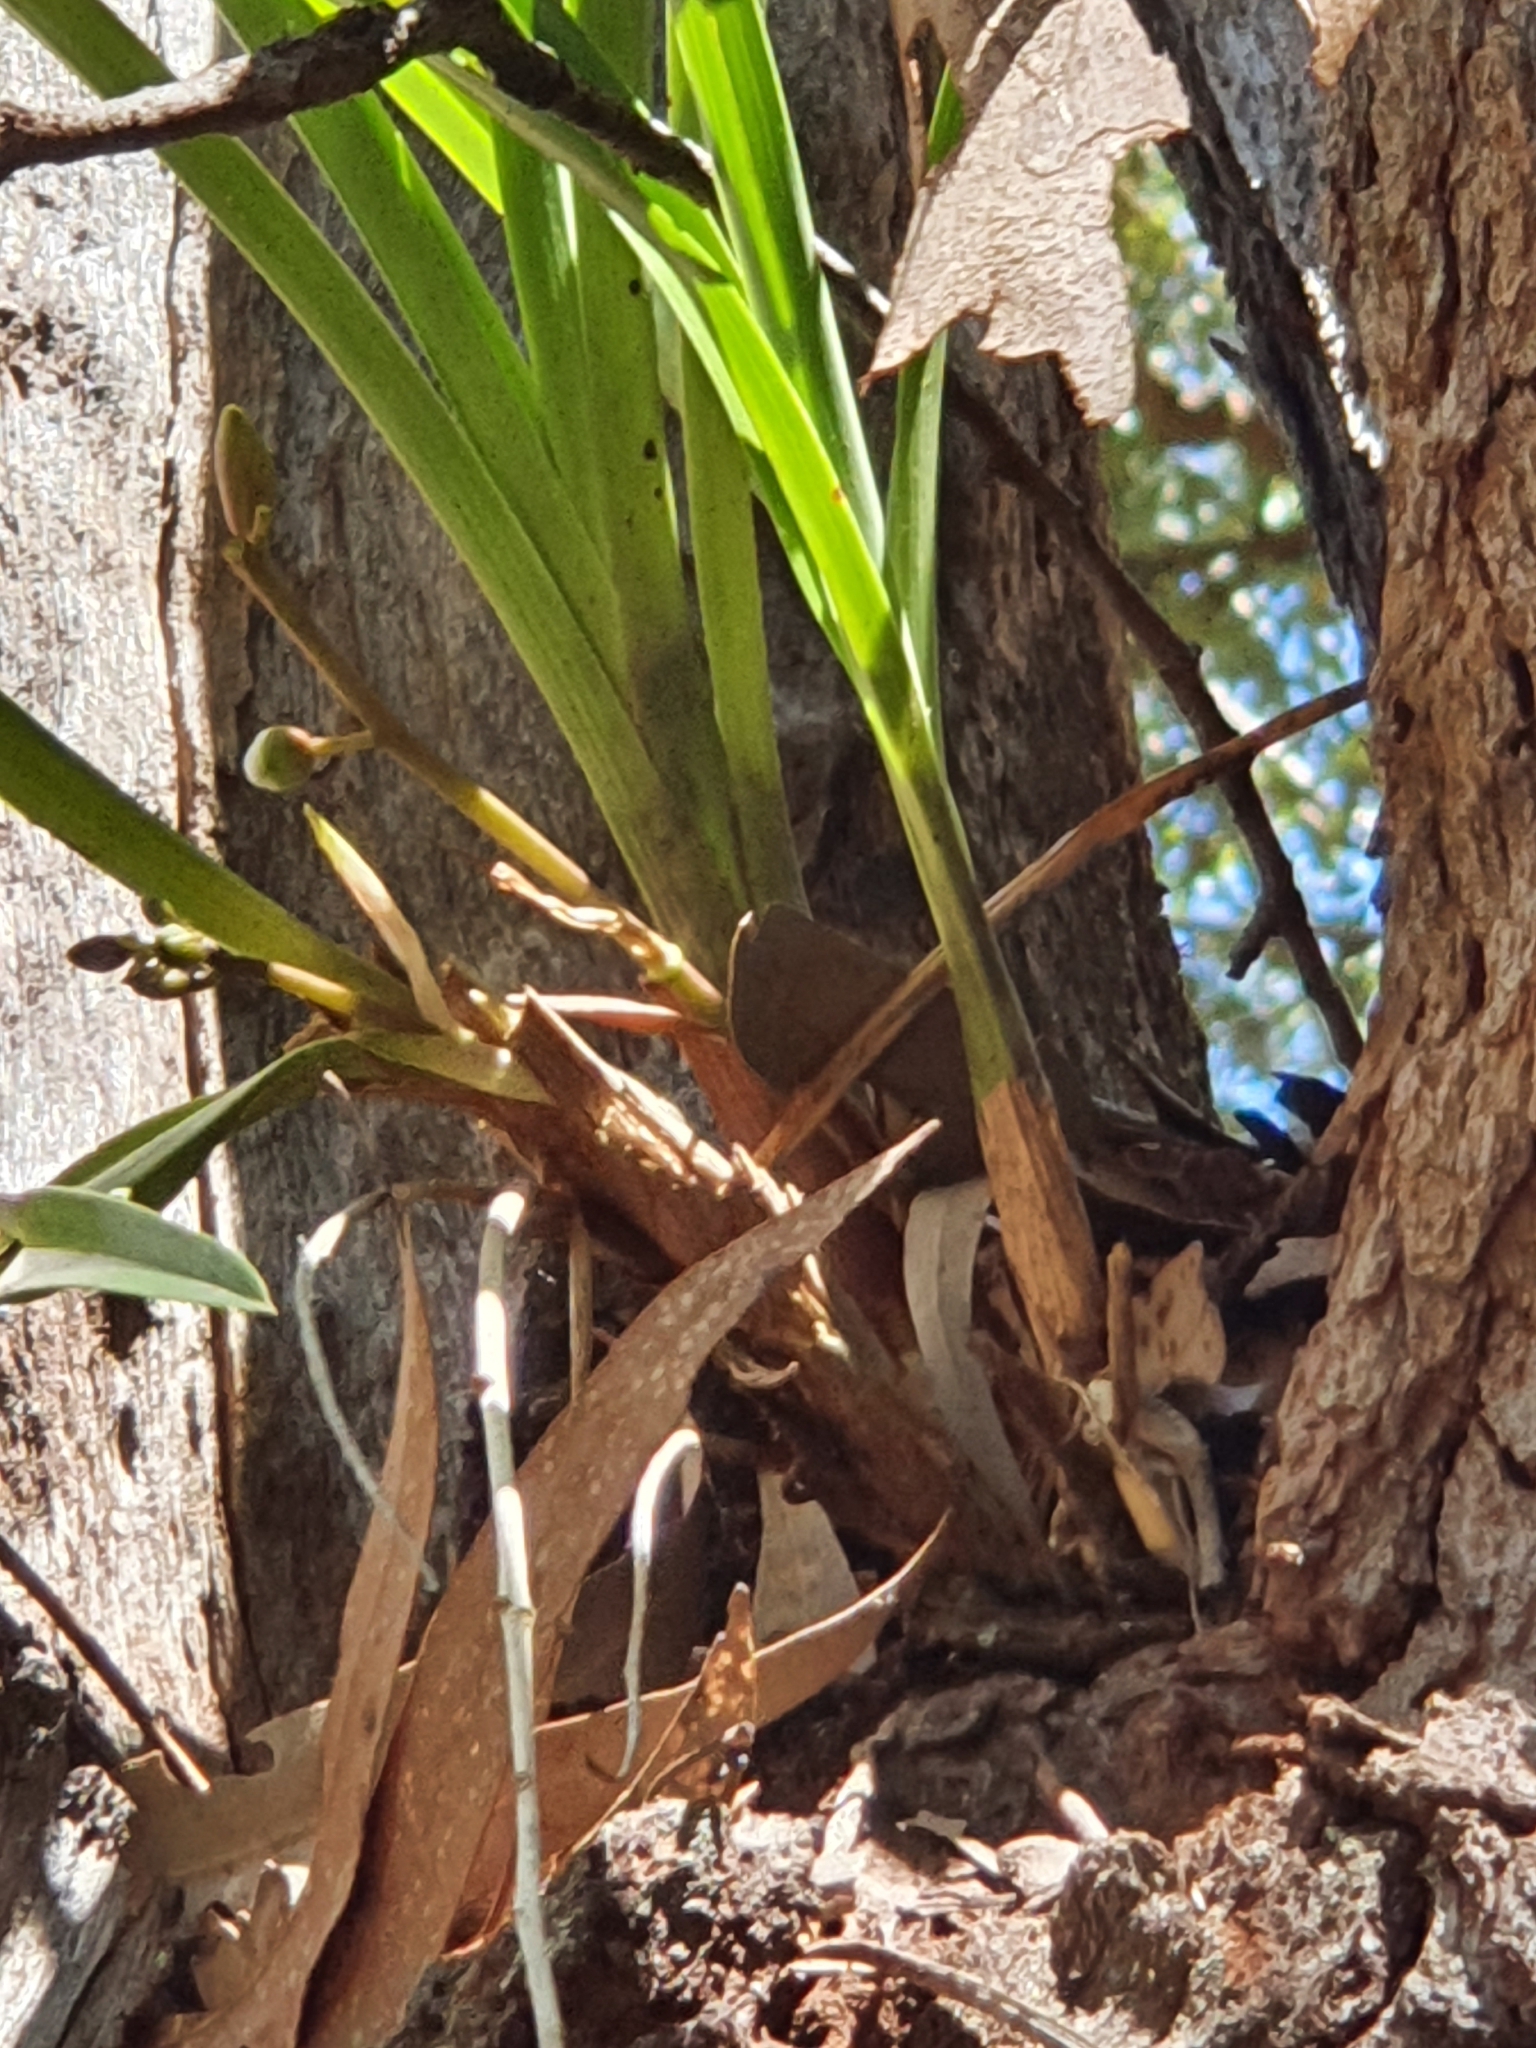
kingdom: Plantae
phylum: Tracheophyta
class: Liliopsida
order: Asparagales
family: Orchidaceae
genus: Cymbidium
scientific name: Cymbidium suave
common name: Snake orchid
